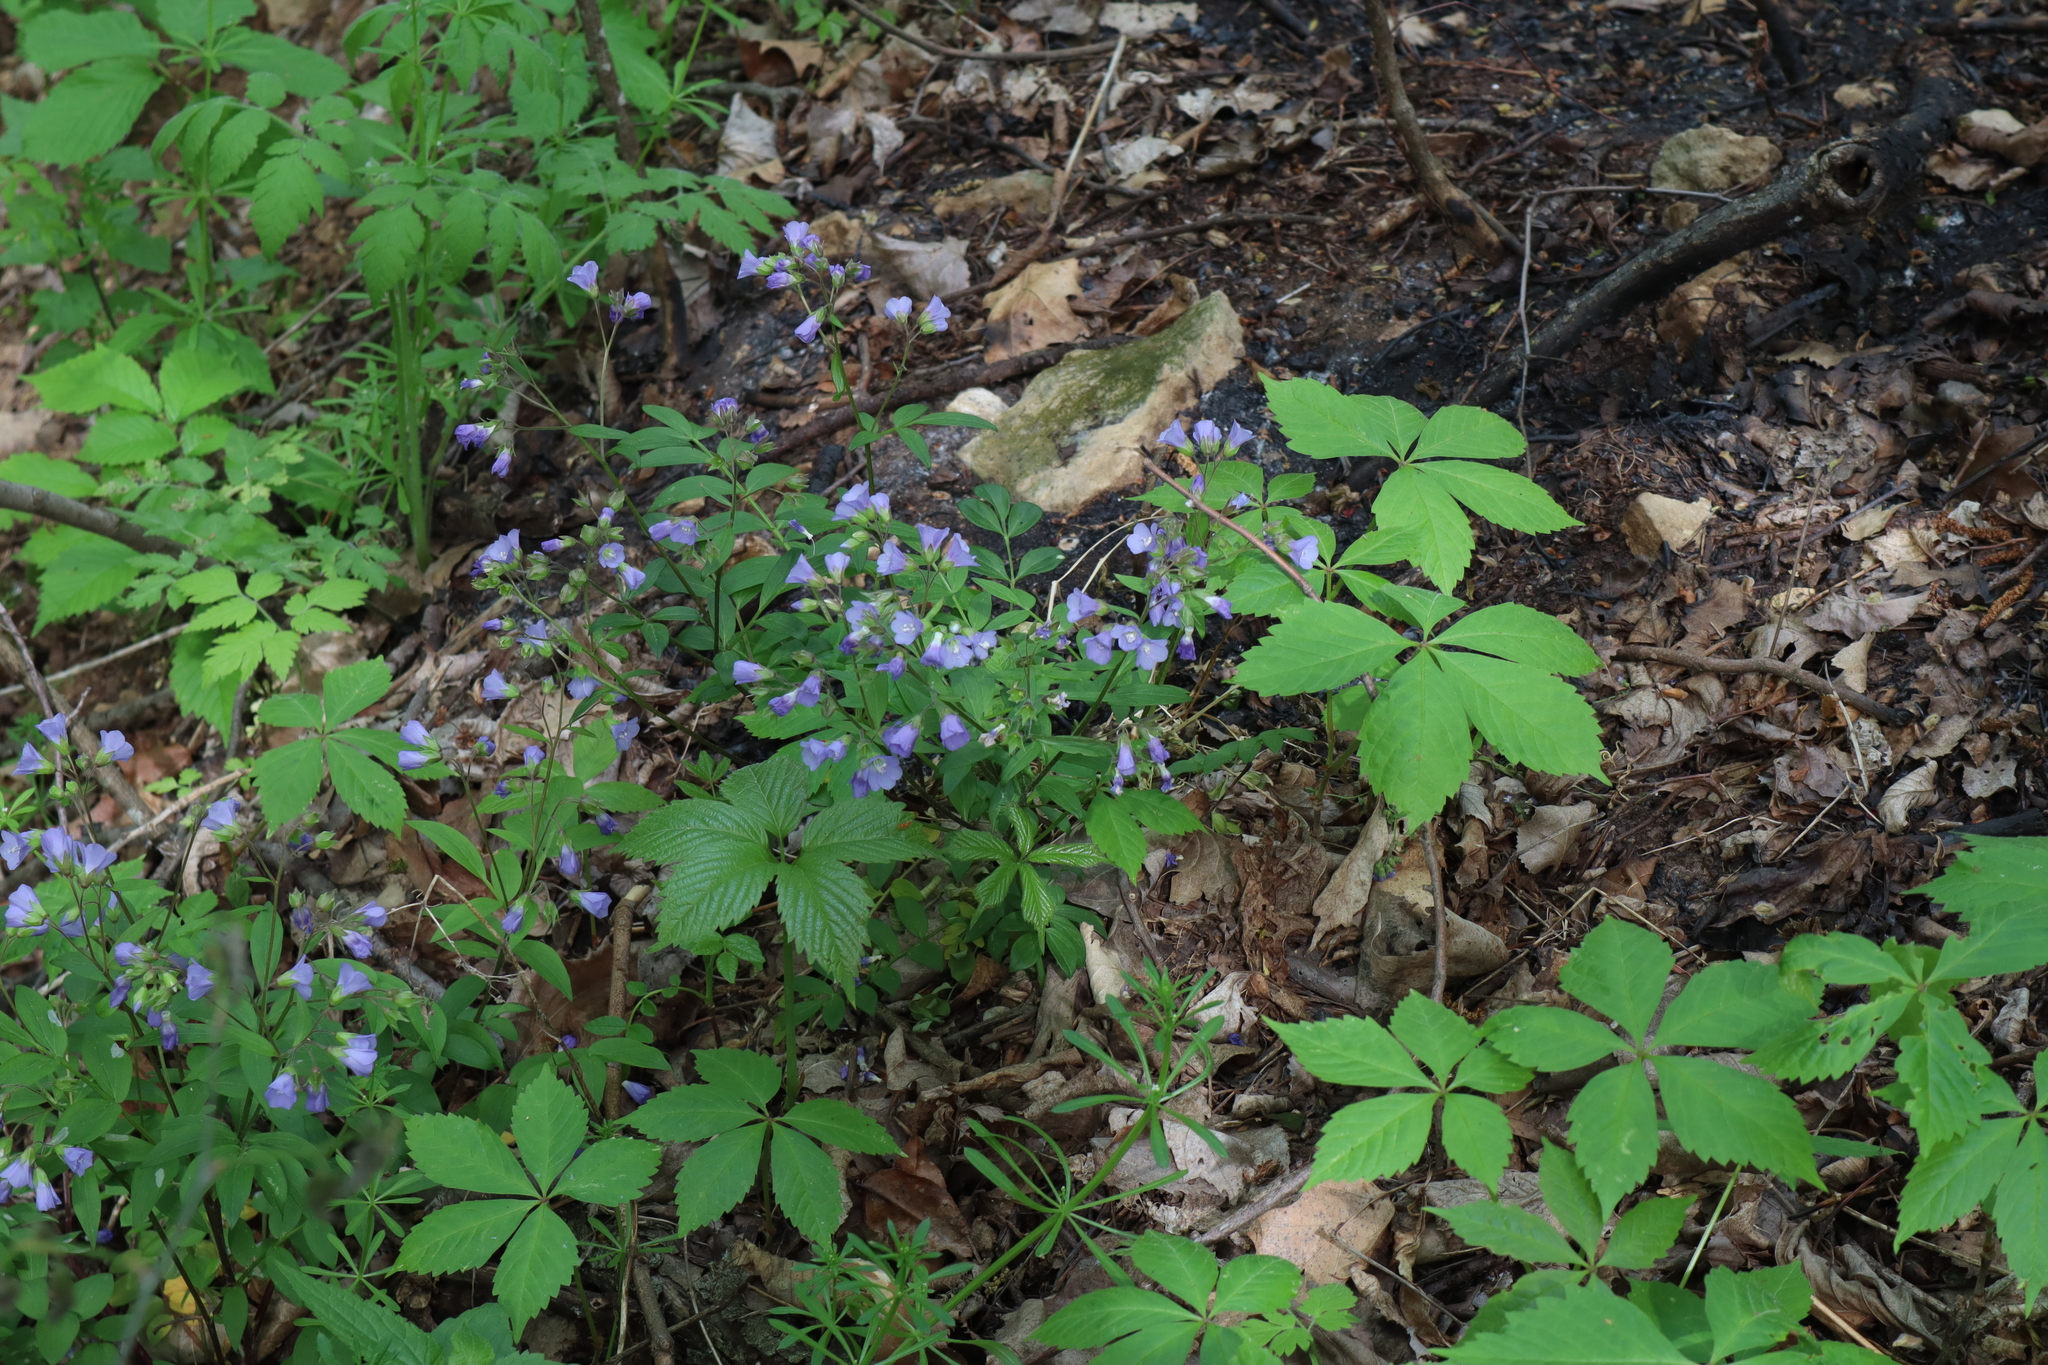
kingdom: Plantae
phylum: Tracheophyta
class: Magnoliopsida
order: Ericales
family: Polemoniaceae
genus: Polemonium
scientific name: Polemonium reptans
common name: Creeping jacob's-ladder
